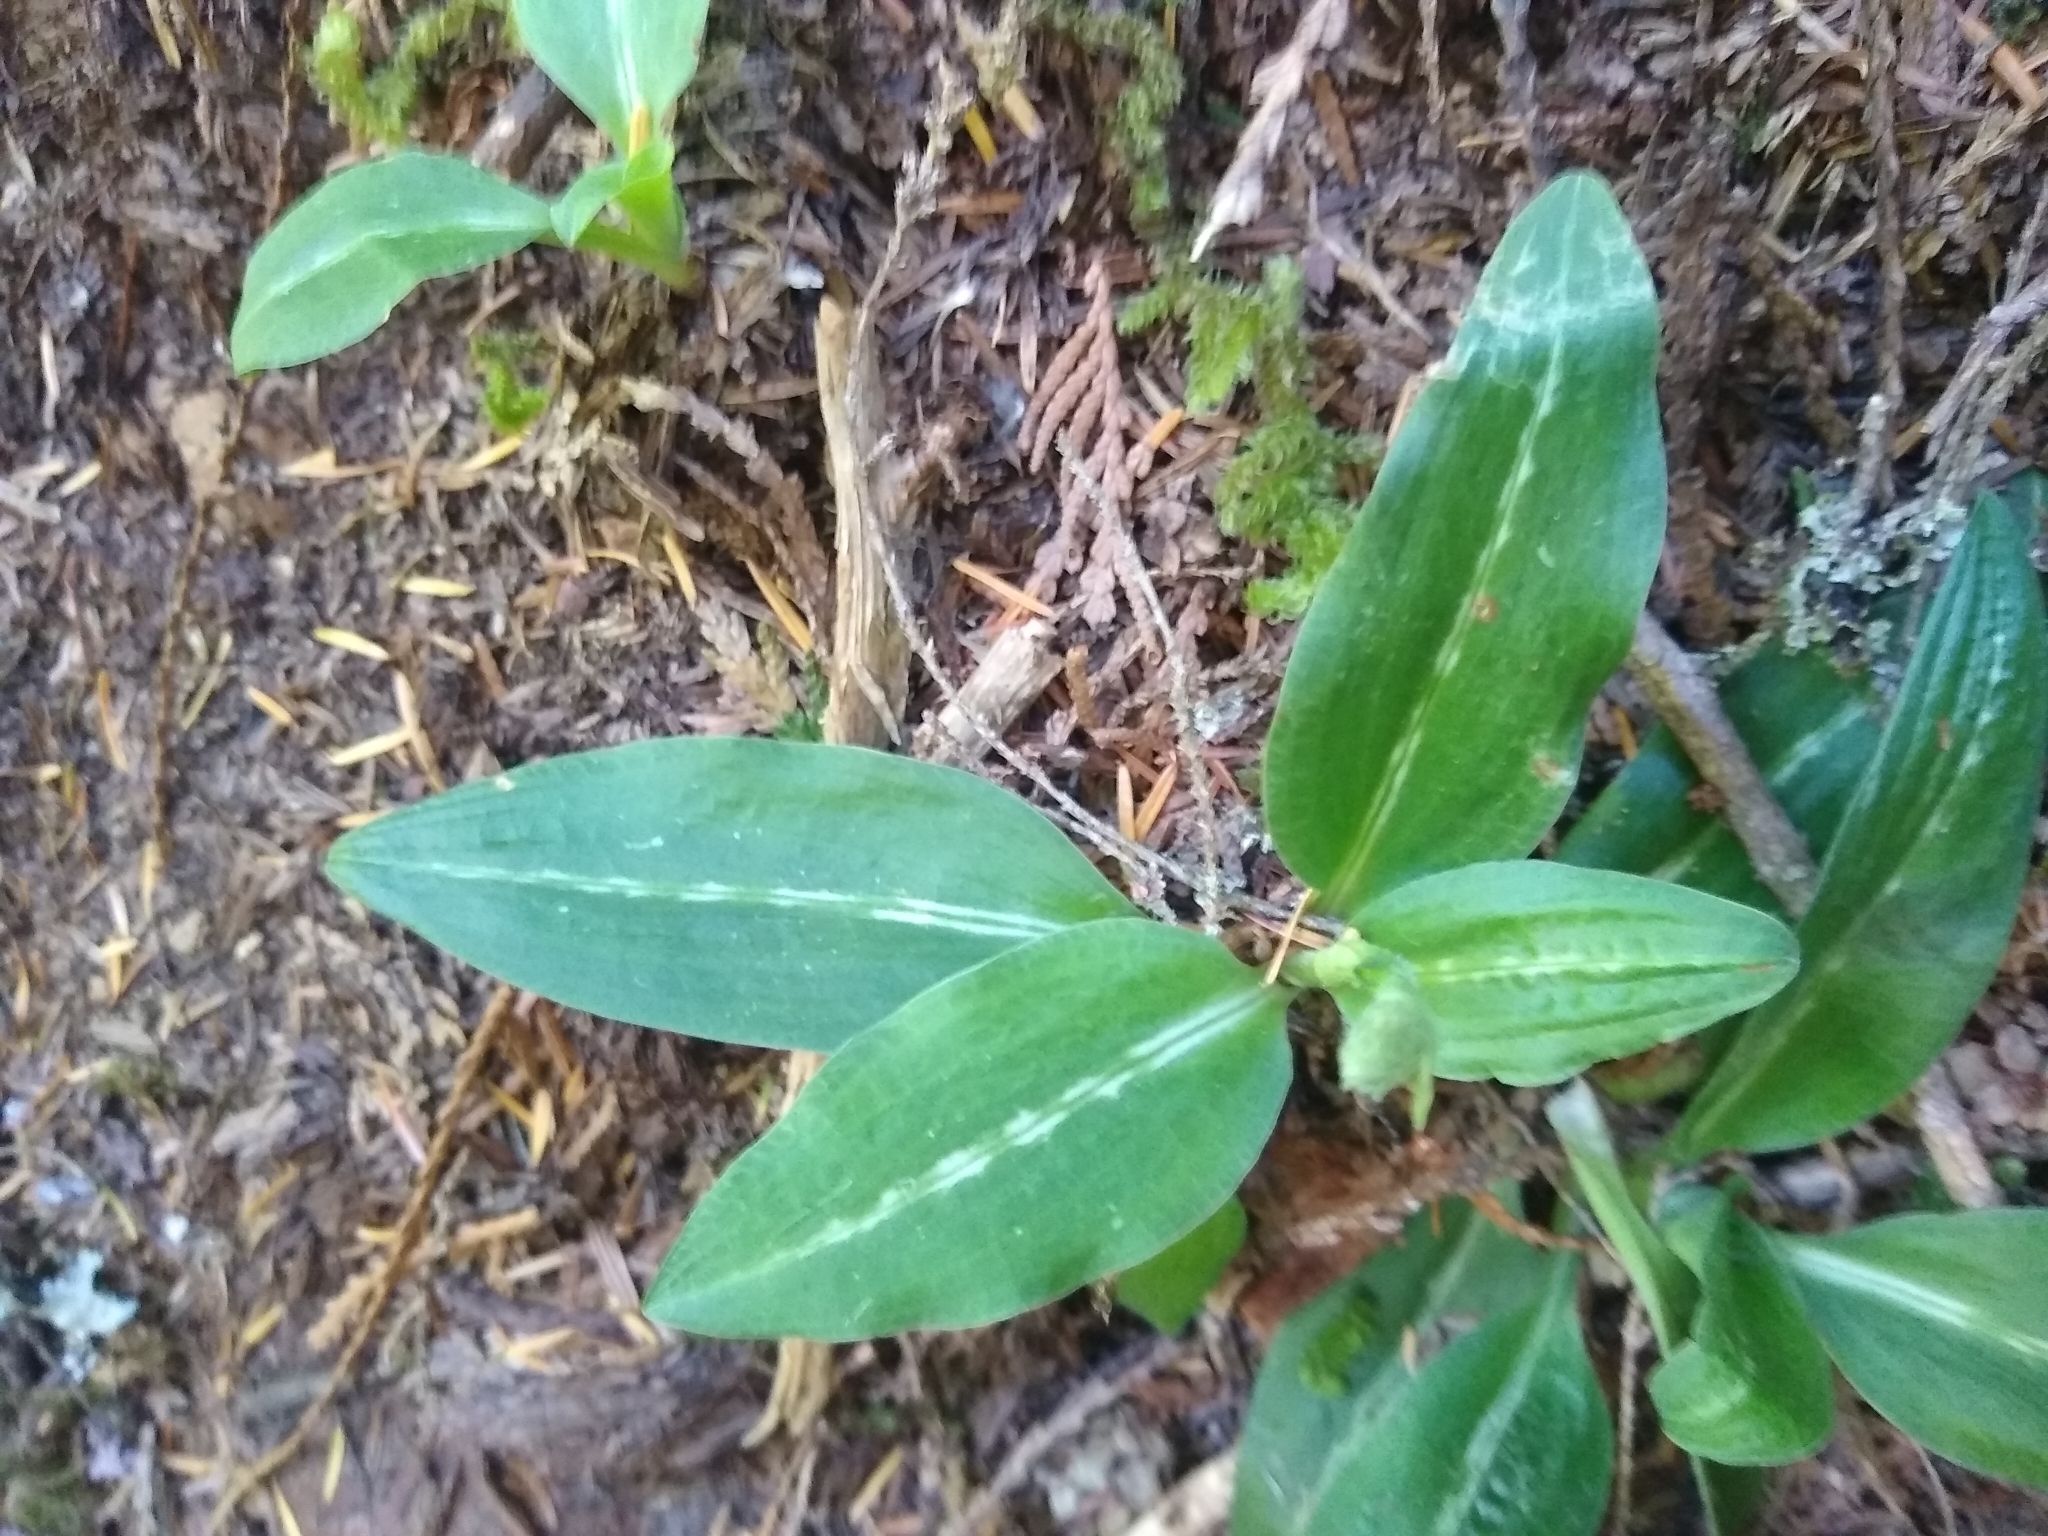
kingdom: Plantae
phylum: Tracheophyta
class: Liliopsida
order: Asparagales
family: Orchidaceae
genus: Goodyera
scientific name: Goodyera oblongifolia
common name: Giant rattlesnake-plantain
